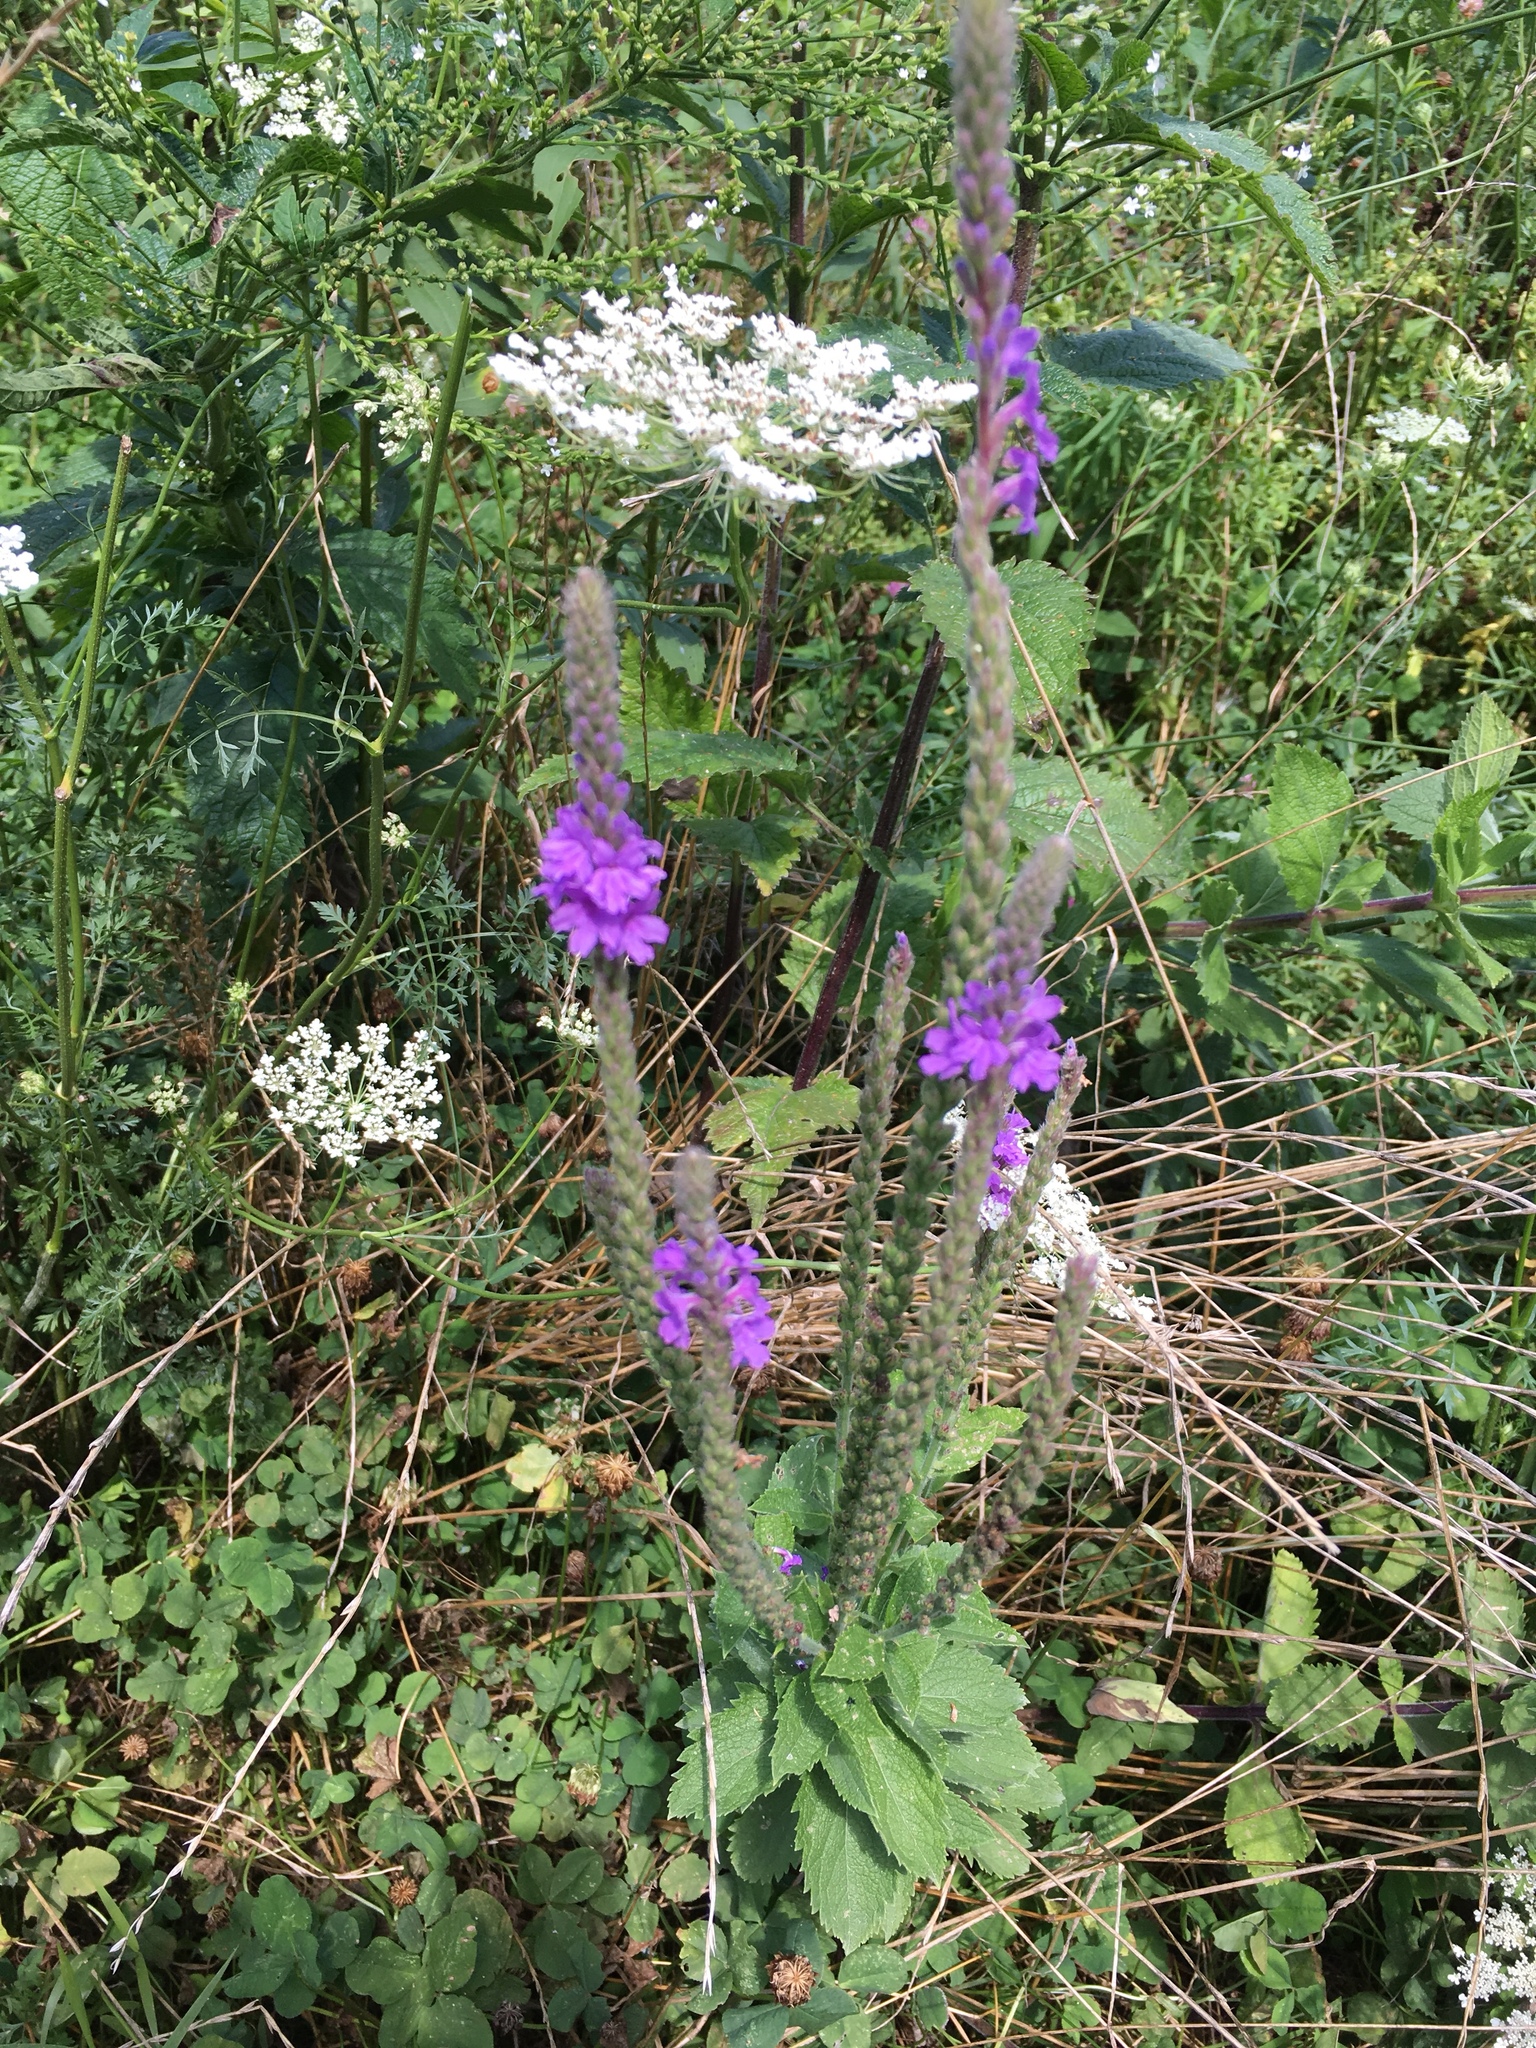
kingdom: Plantae
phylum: Tracheophyta
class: Magnoliopsida
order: Lamiales
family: Verbenaceae
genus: Verbena
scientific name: Verbena stricta
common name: Hoary vervain
